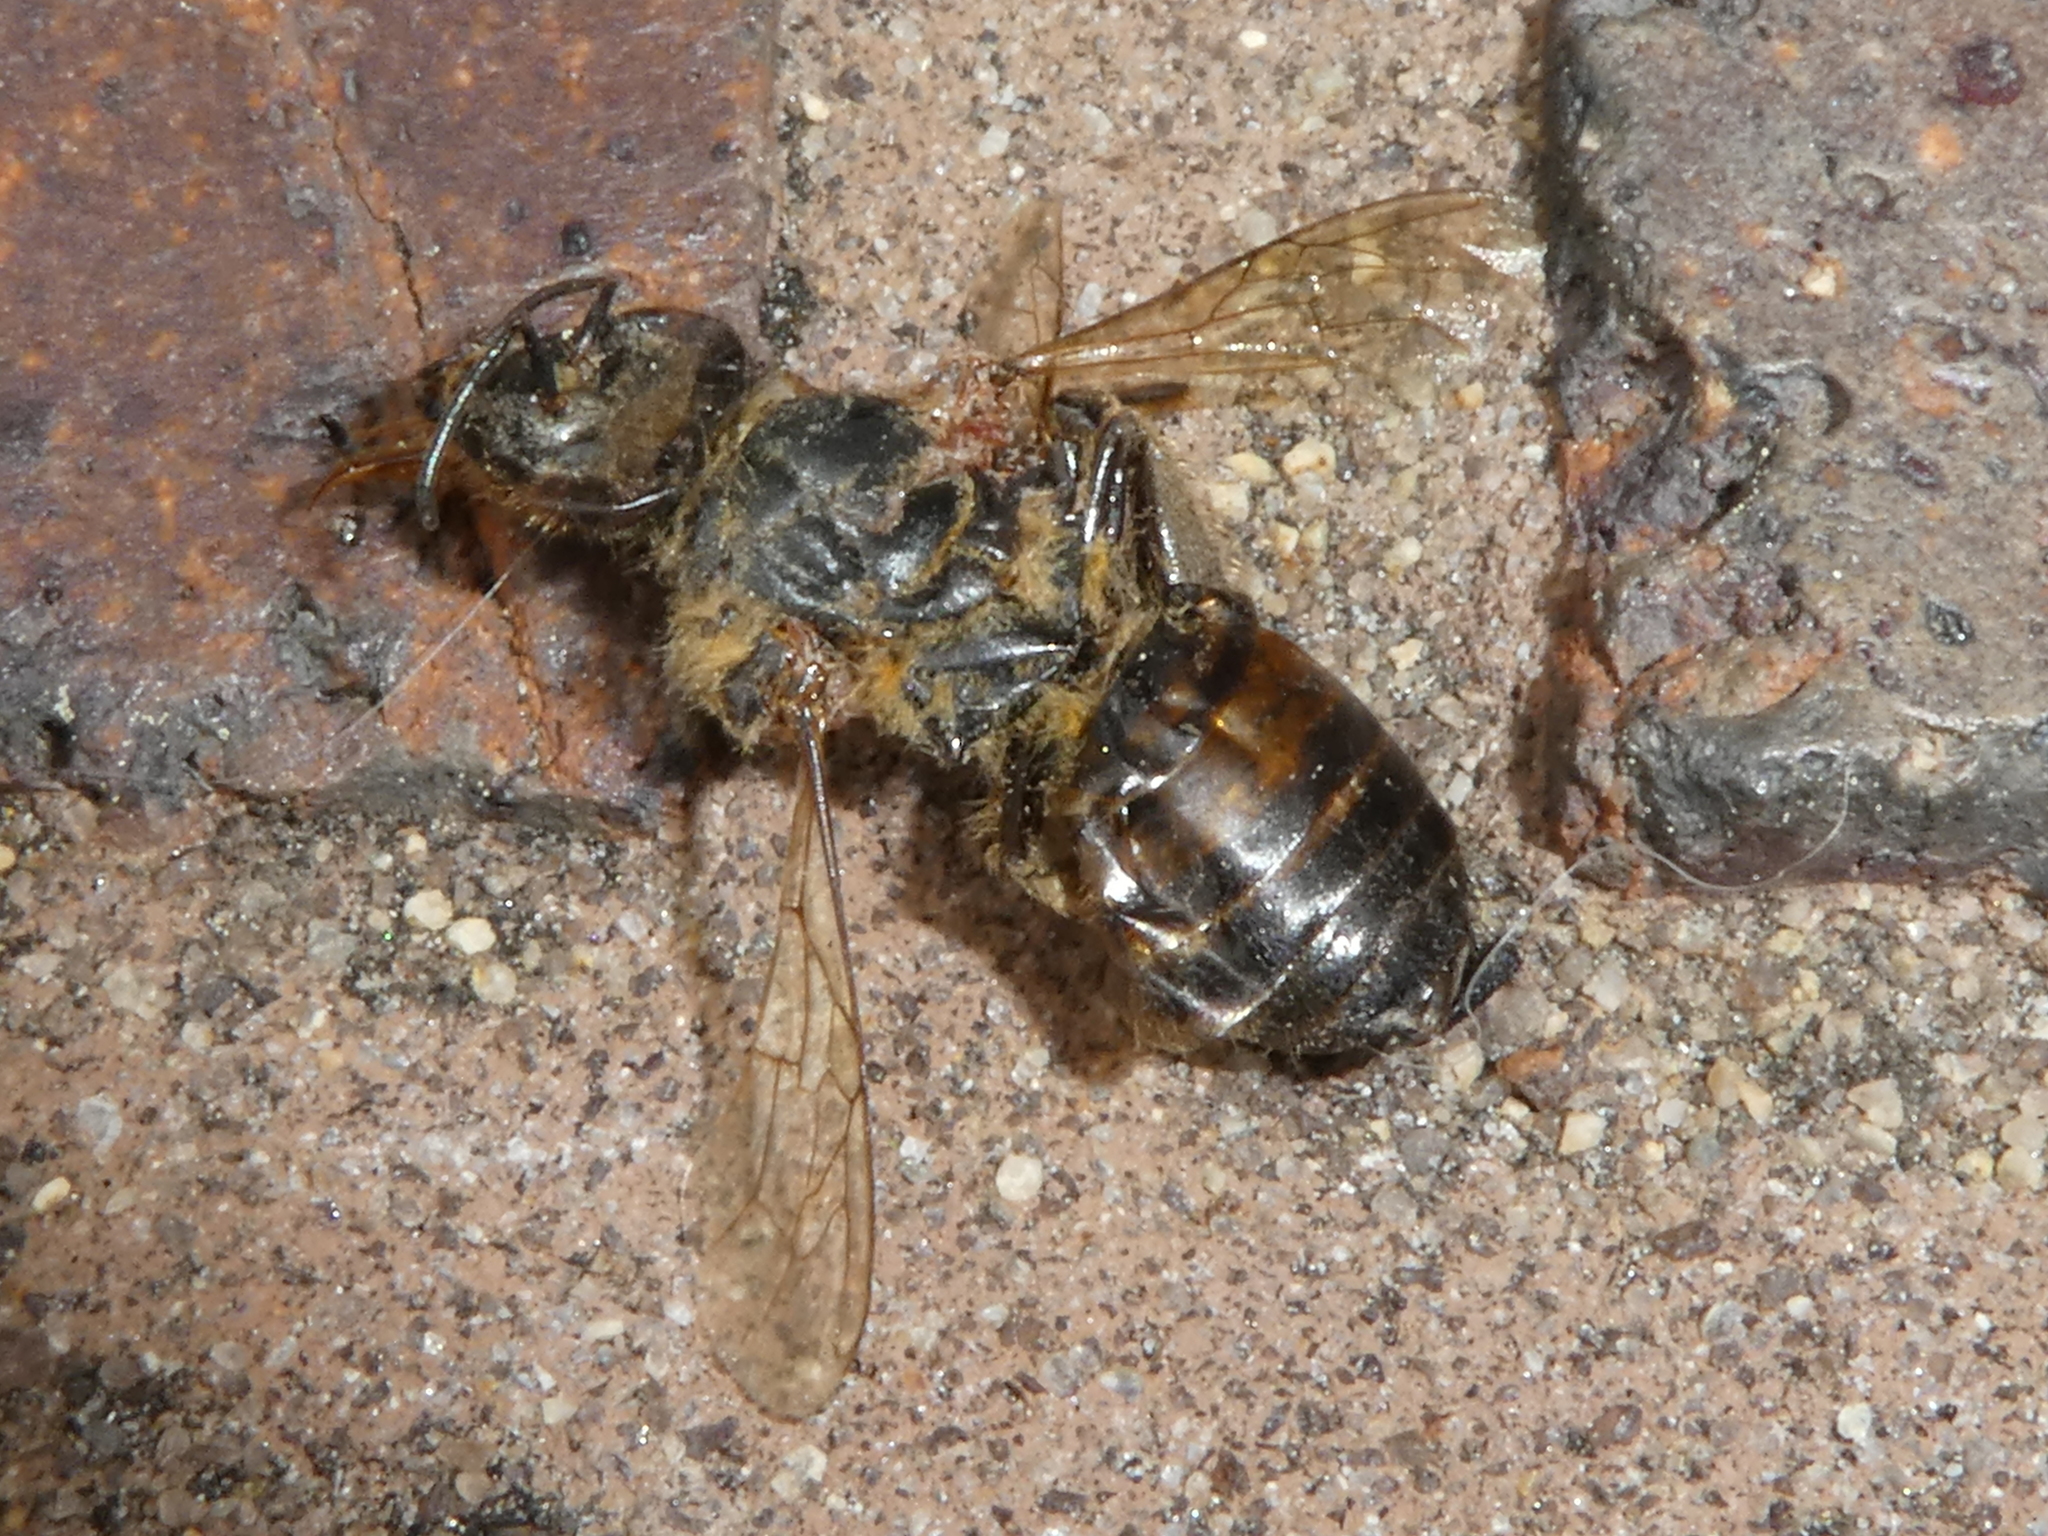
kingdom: Animalia
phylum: Arthropoda
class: Insecta
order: Hymenoptera
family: Apidae
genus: Apis
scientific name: Apis mellifera
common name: Honey bee
